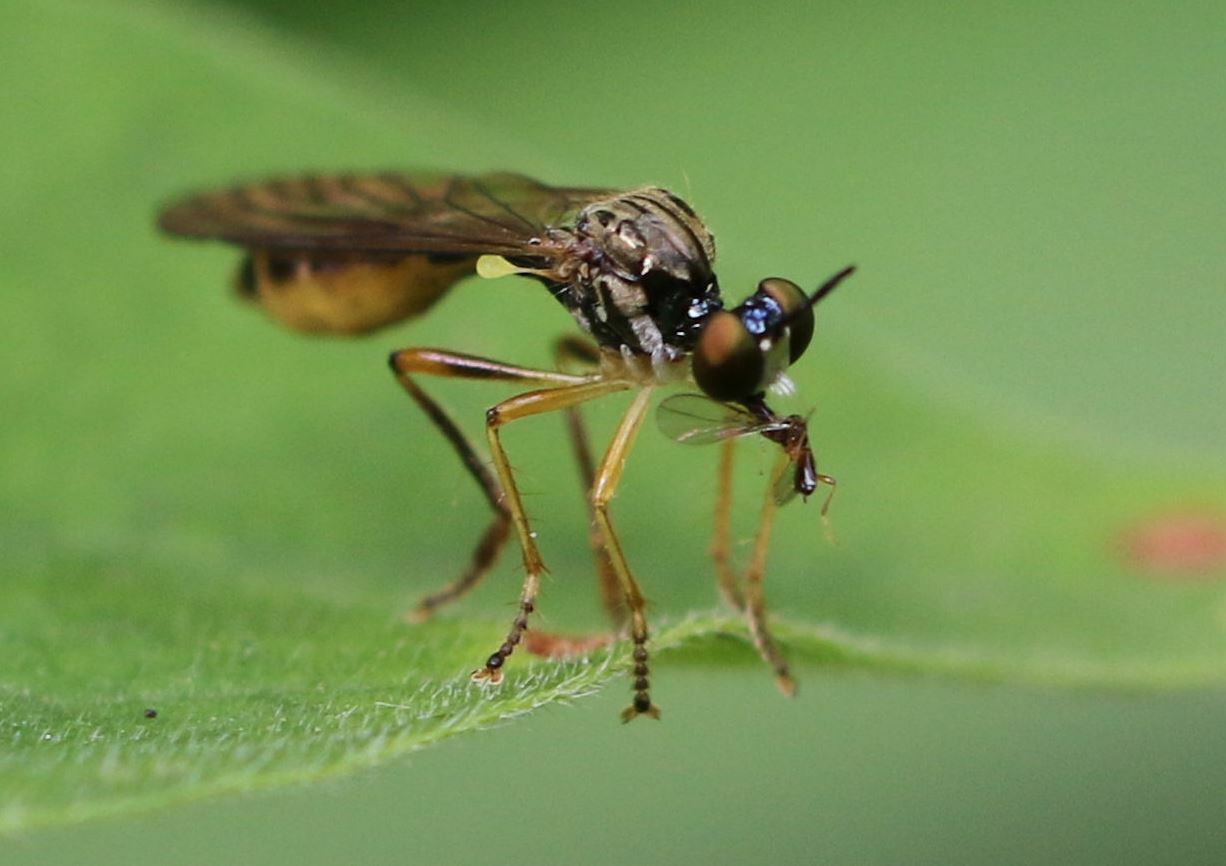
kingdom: Animalia
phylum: Arthropoda
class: Insecta
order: Diptera
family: Asilidae
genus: Dioctria
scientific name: Dioctria linearis
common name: Small yellow-legged robberfly
